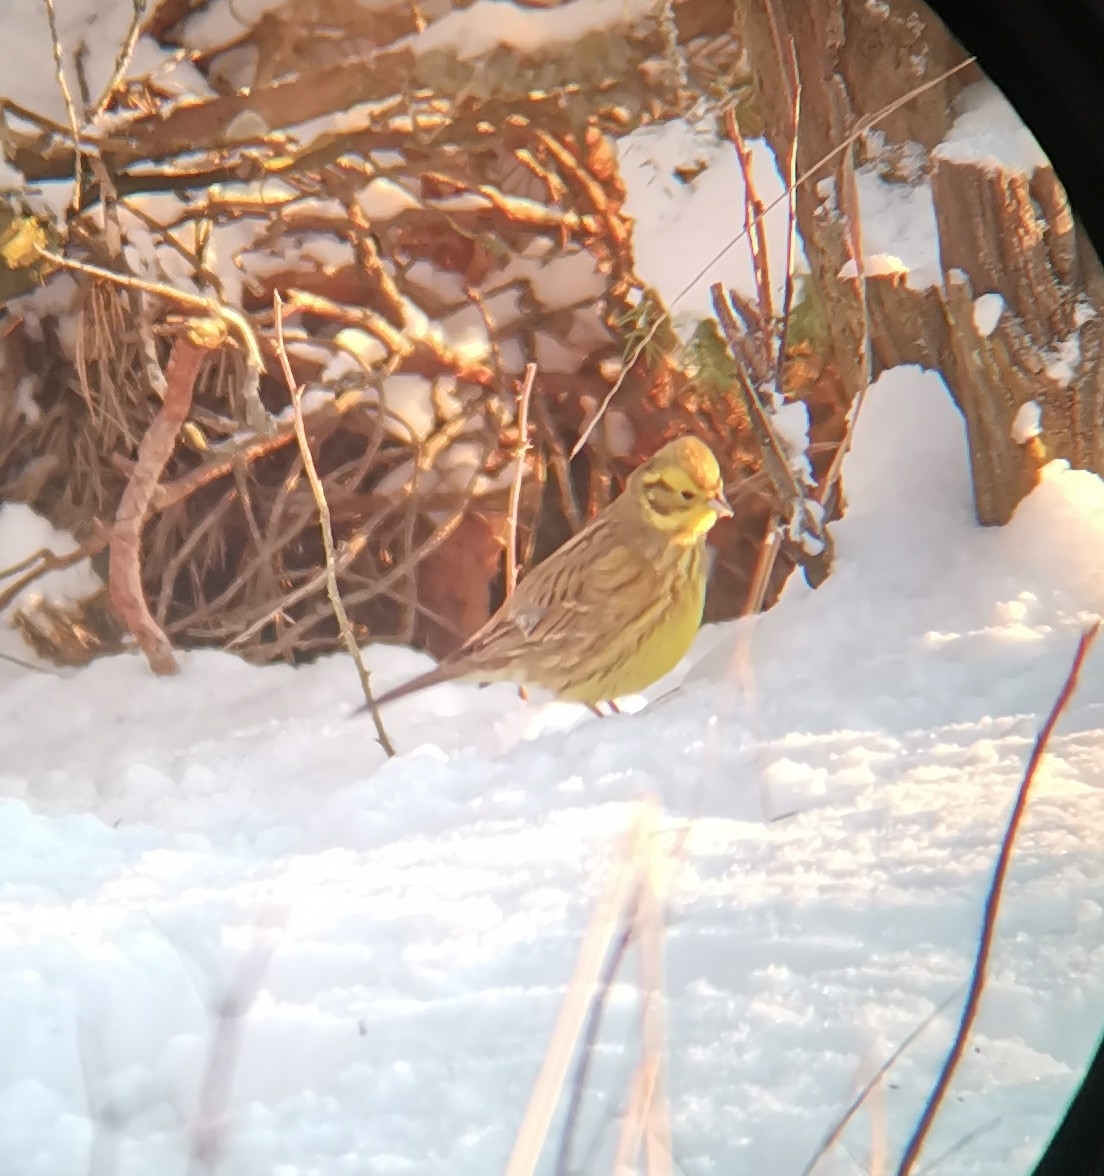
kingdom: Animalia
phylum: Chordata
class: Aves
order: Passeriformes
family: Emberizidae
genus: Emberiza
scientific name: Emberiza citrinella
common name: Yellowhammer
